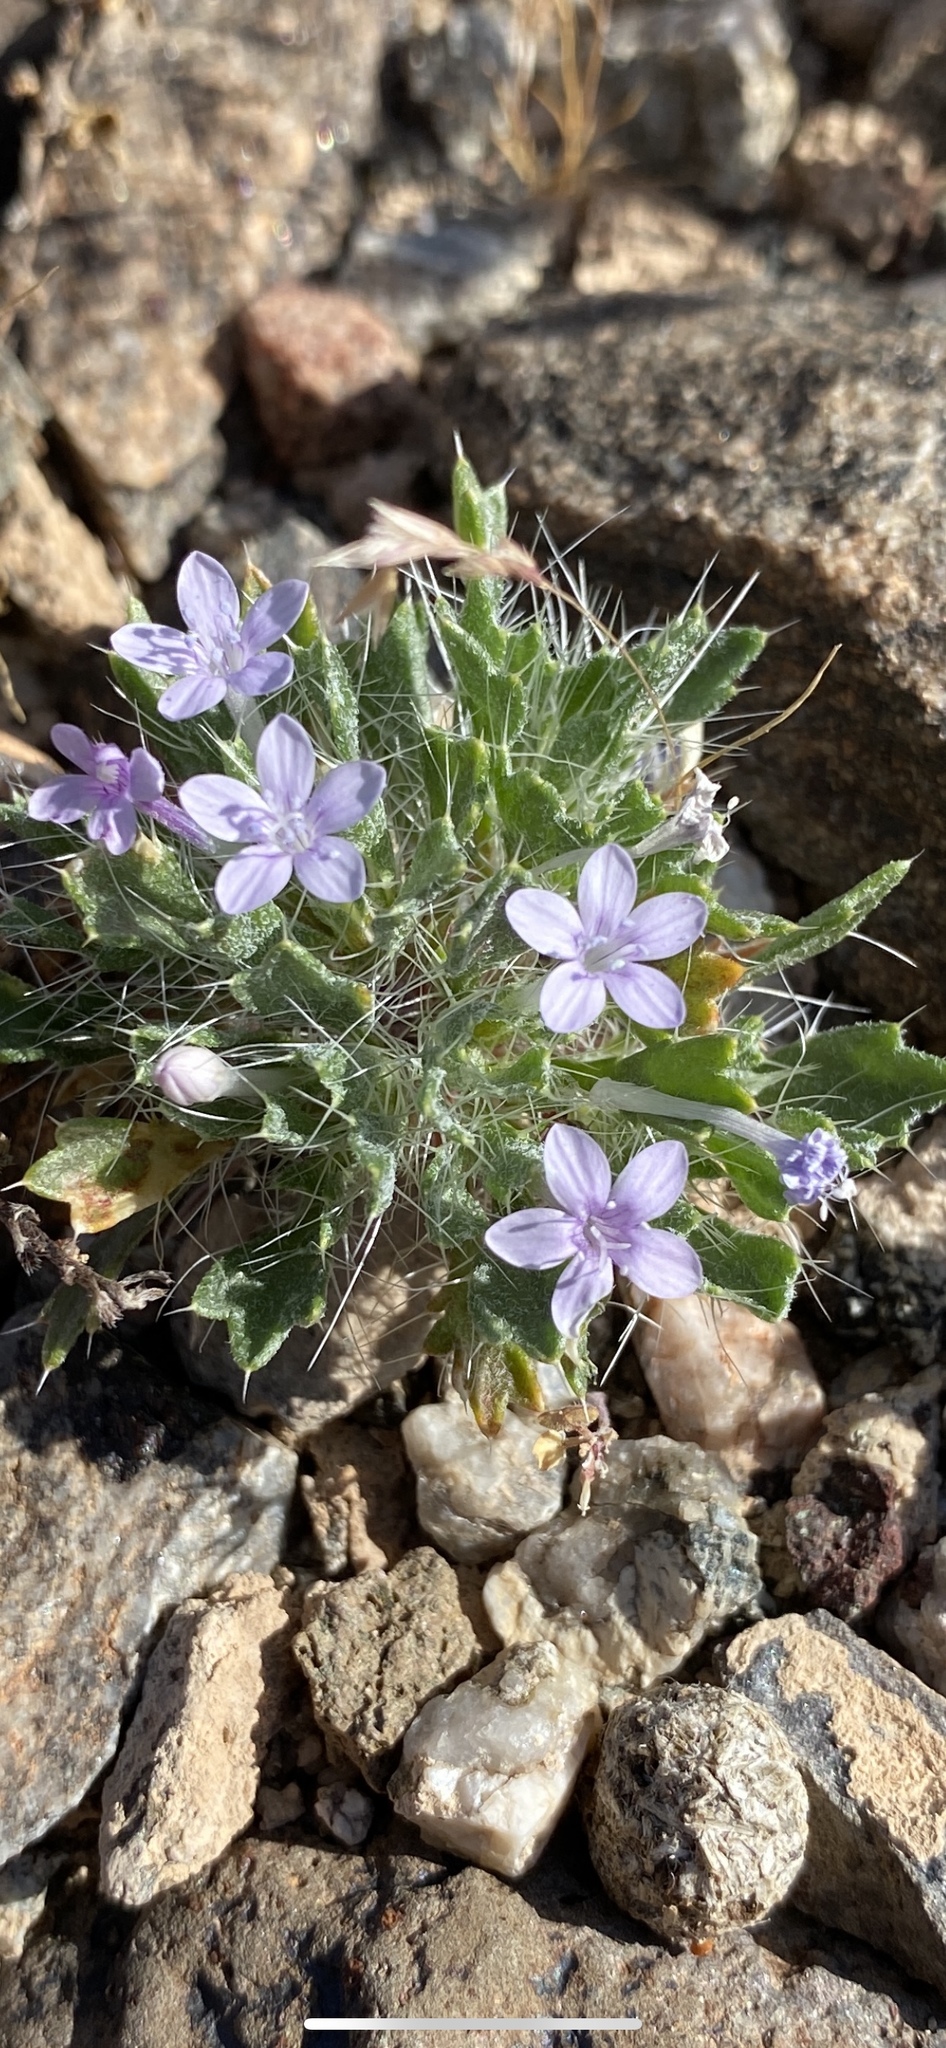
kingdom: Plantae
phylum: Tracheophyta
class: Magnoliopsida
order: Ericales
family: Polemoniaceae
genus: Langloisia
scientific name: Langloisia setosissima
